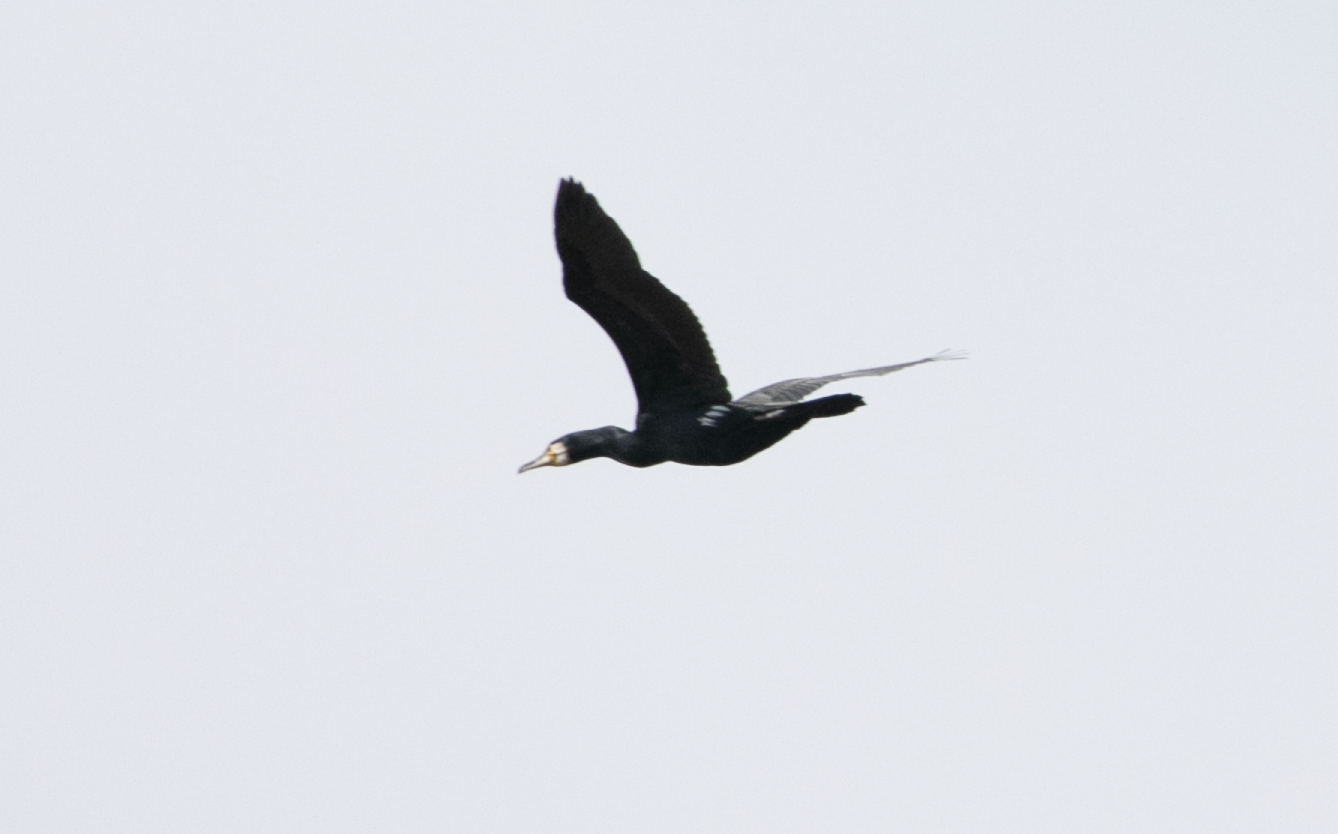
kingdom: Animalia
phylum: Chordata
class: Aves
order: Suliformes
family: Phalacrocoracidae
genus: Phalacrocorax
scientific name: Phalacrocorax carbo
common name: Great cormorant
